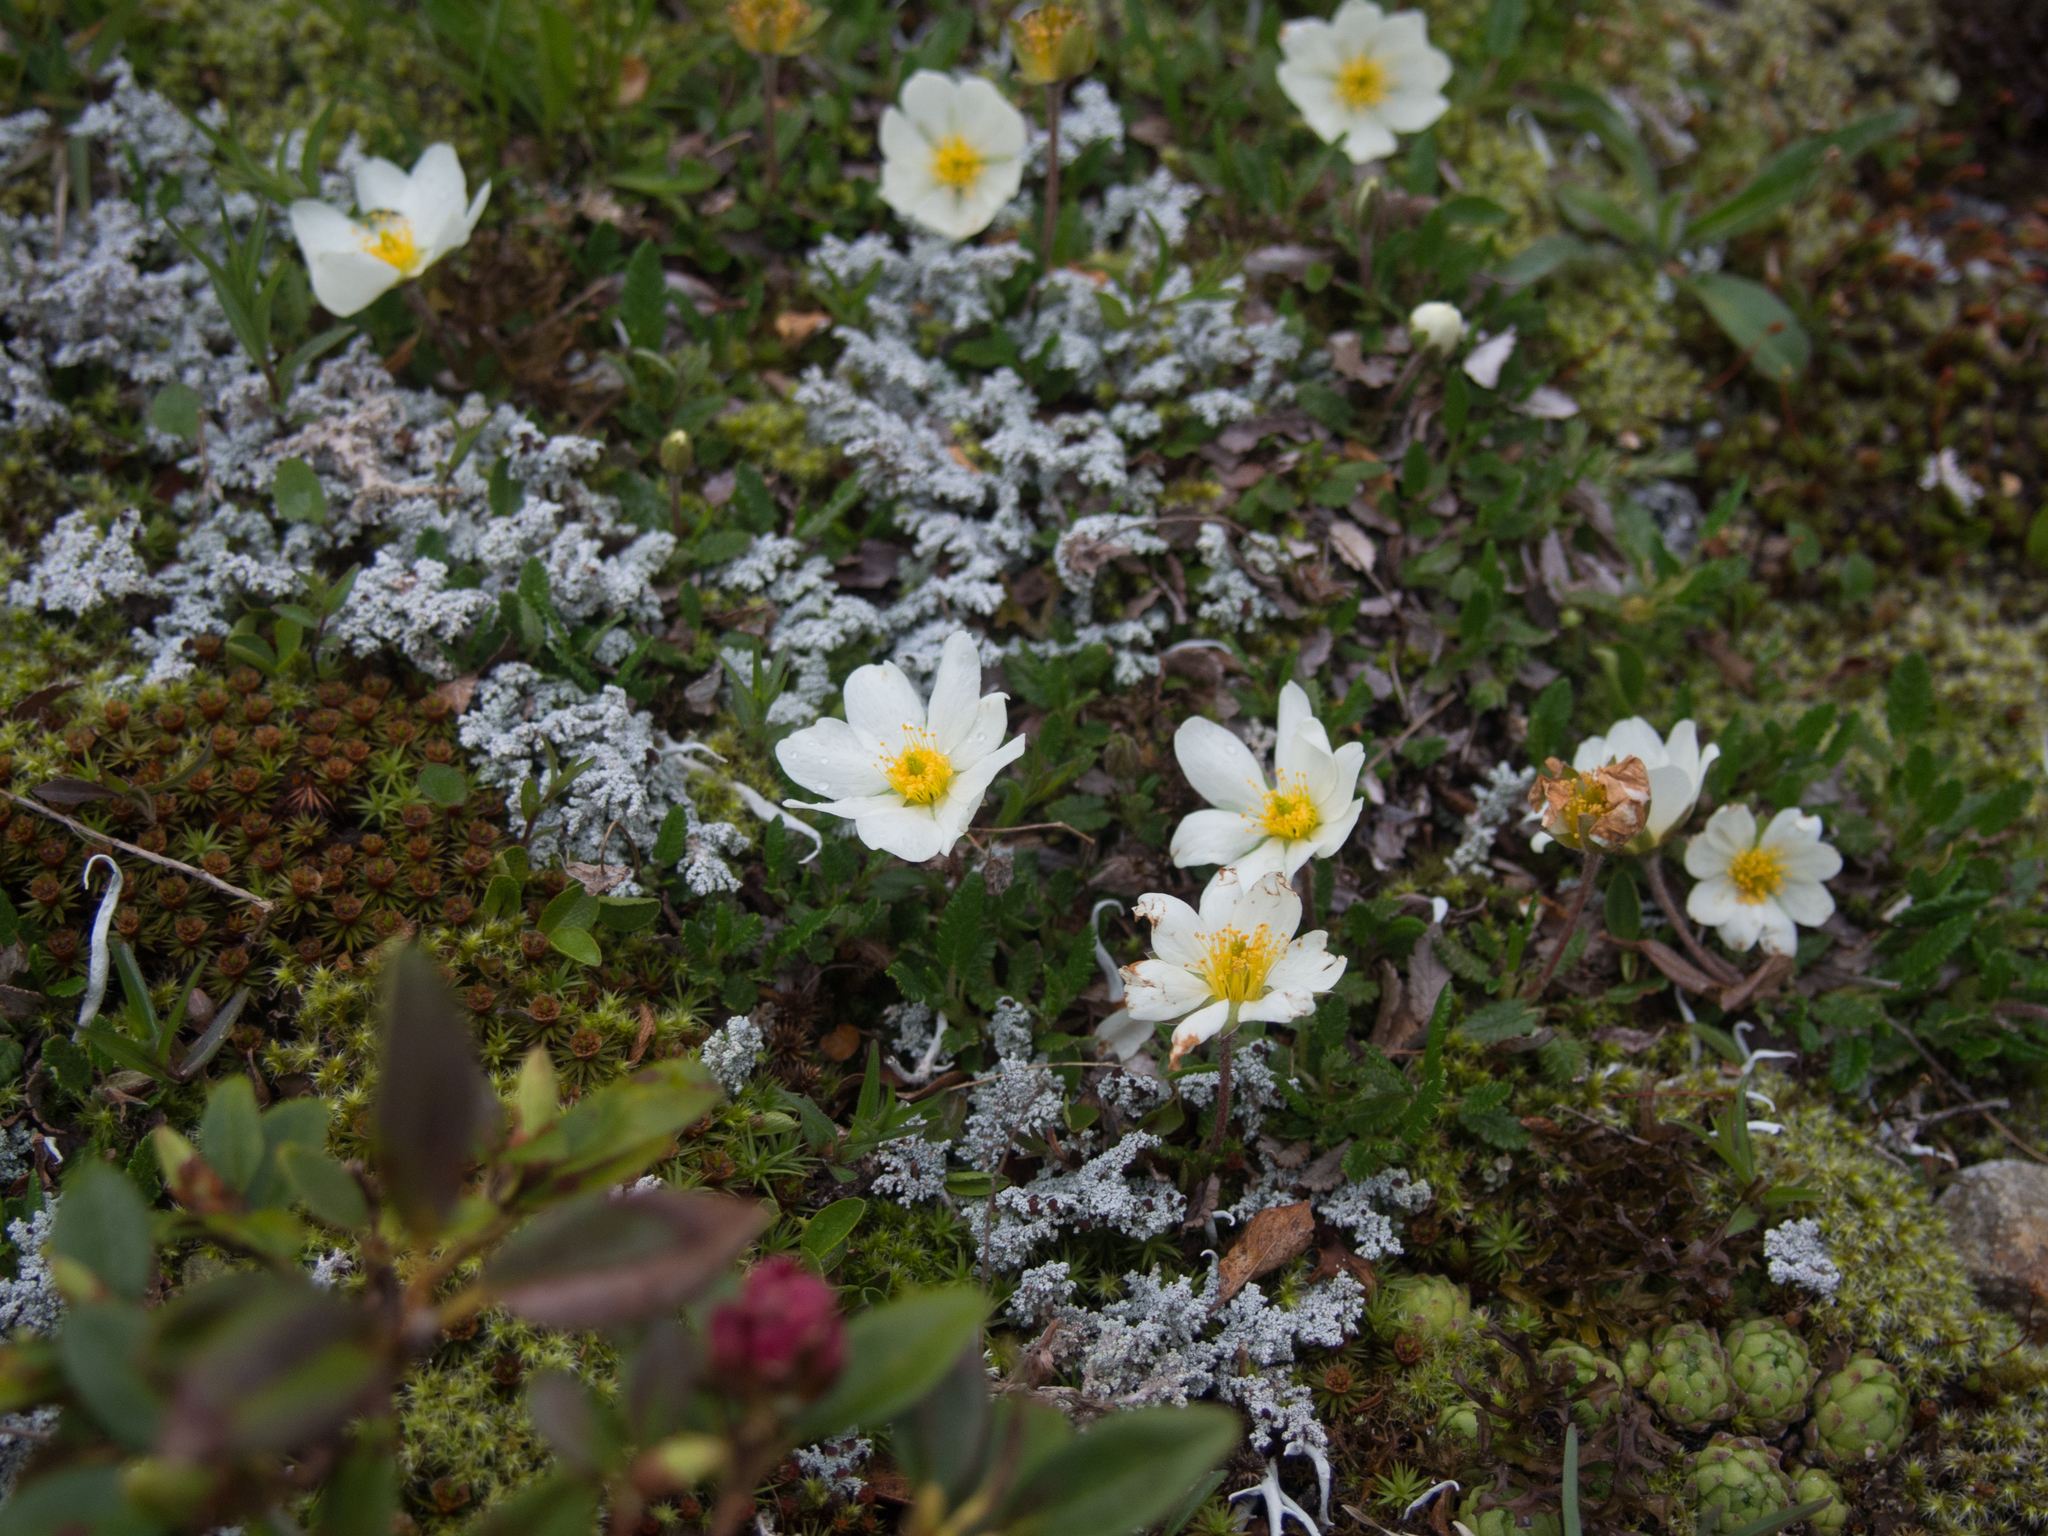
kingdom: Plantae
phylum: Tracheophyta
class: Magnoliopsida
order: Rosales
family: Rosaceae
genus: Dryas
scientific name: Dryas octopetala
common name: Eight-petal mountain-avens
